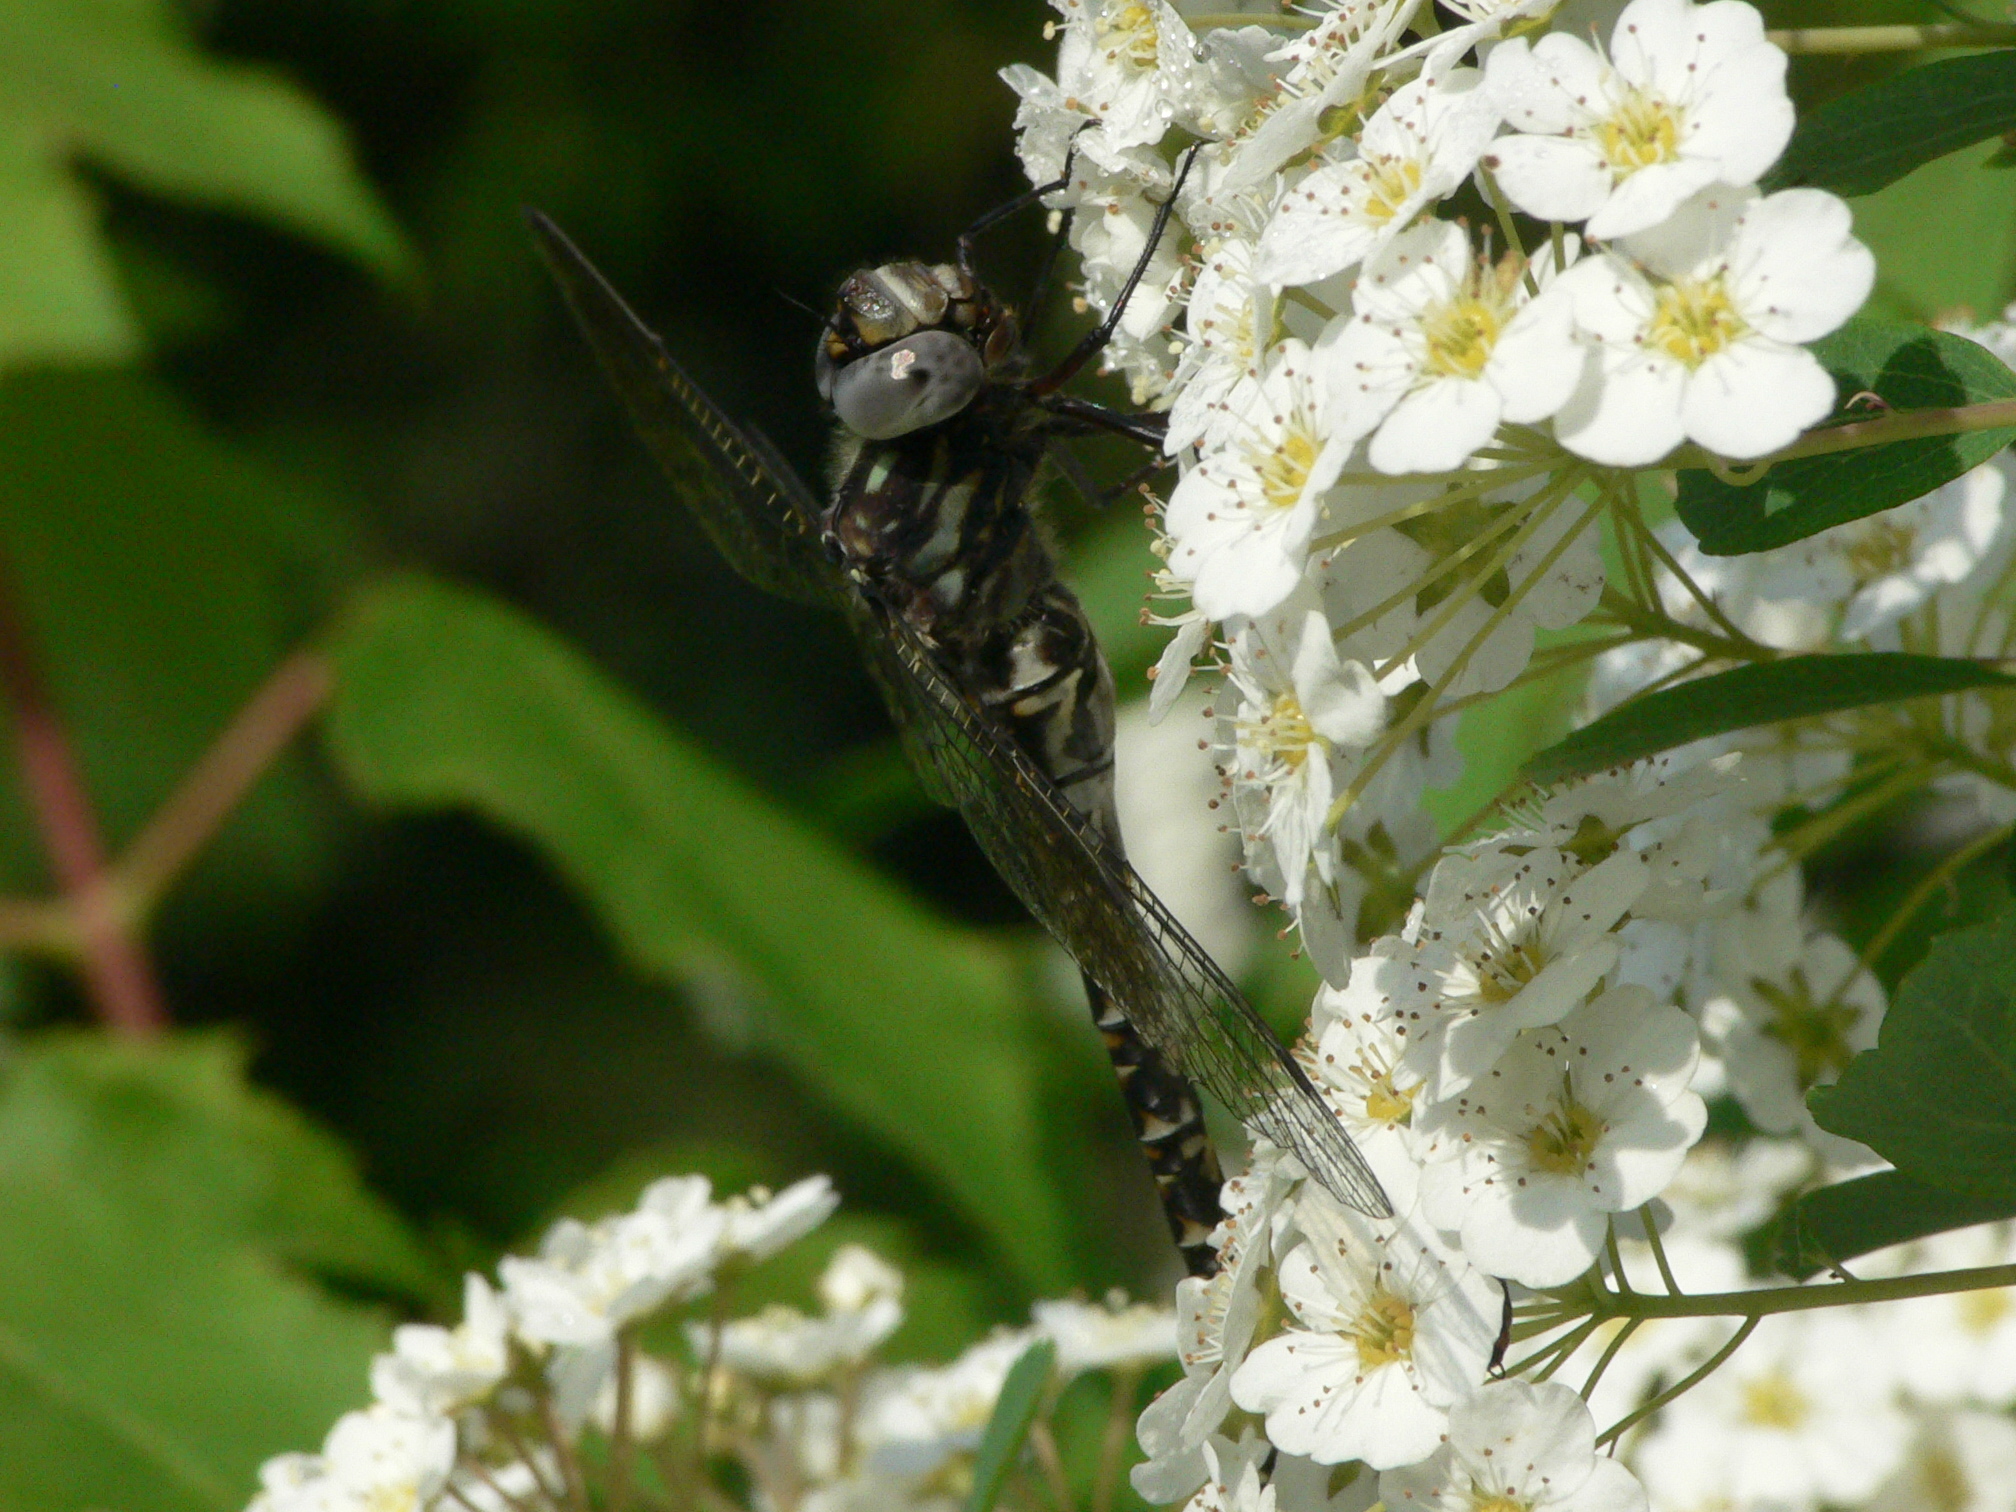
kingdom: Animalia
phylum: Arthropoda
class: Insecta
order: Odonata
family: Aeshnidae
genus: Gomphaeschna
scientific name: Gomphaeschna furcillata
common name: Harlequin darner
